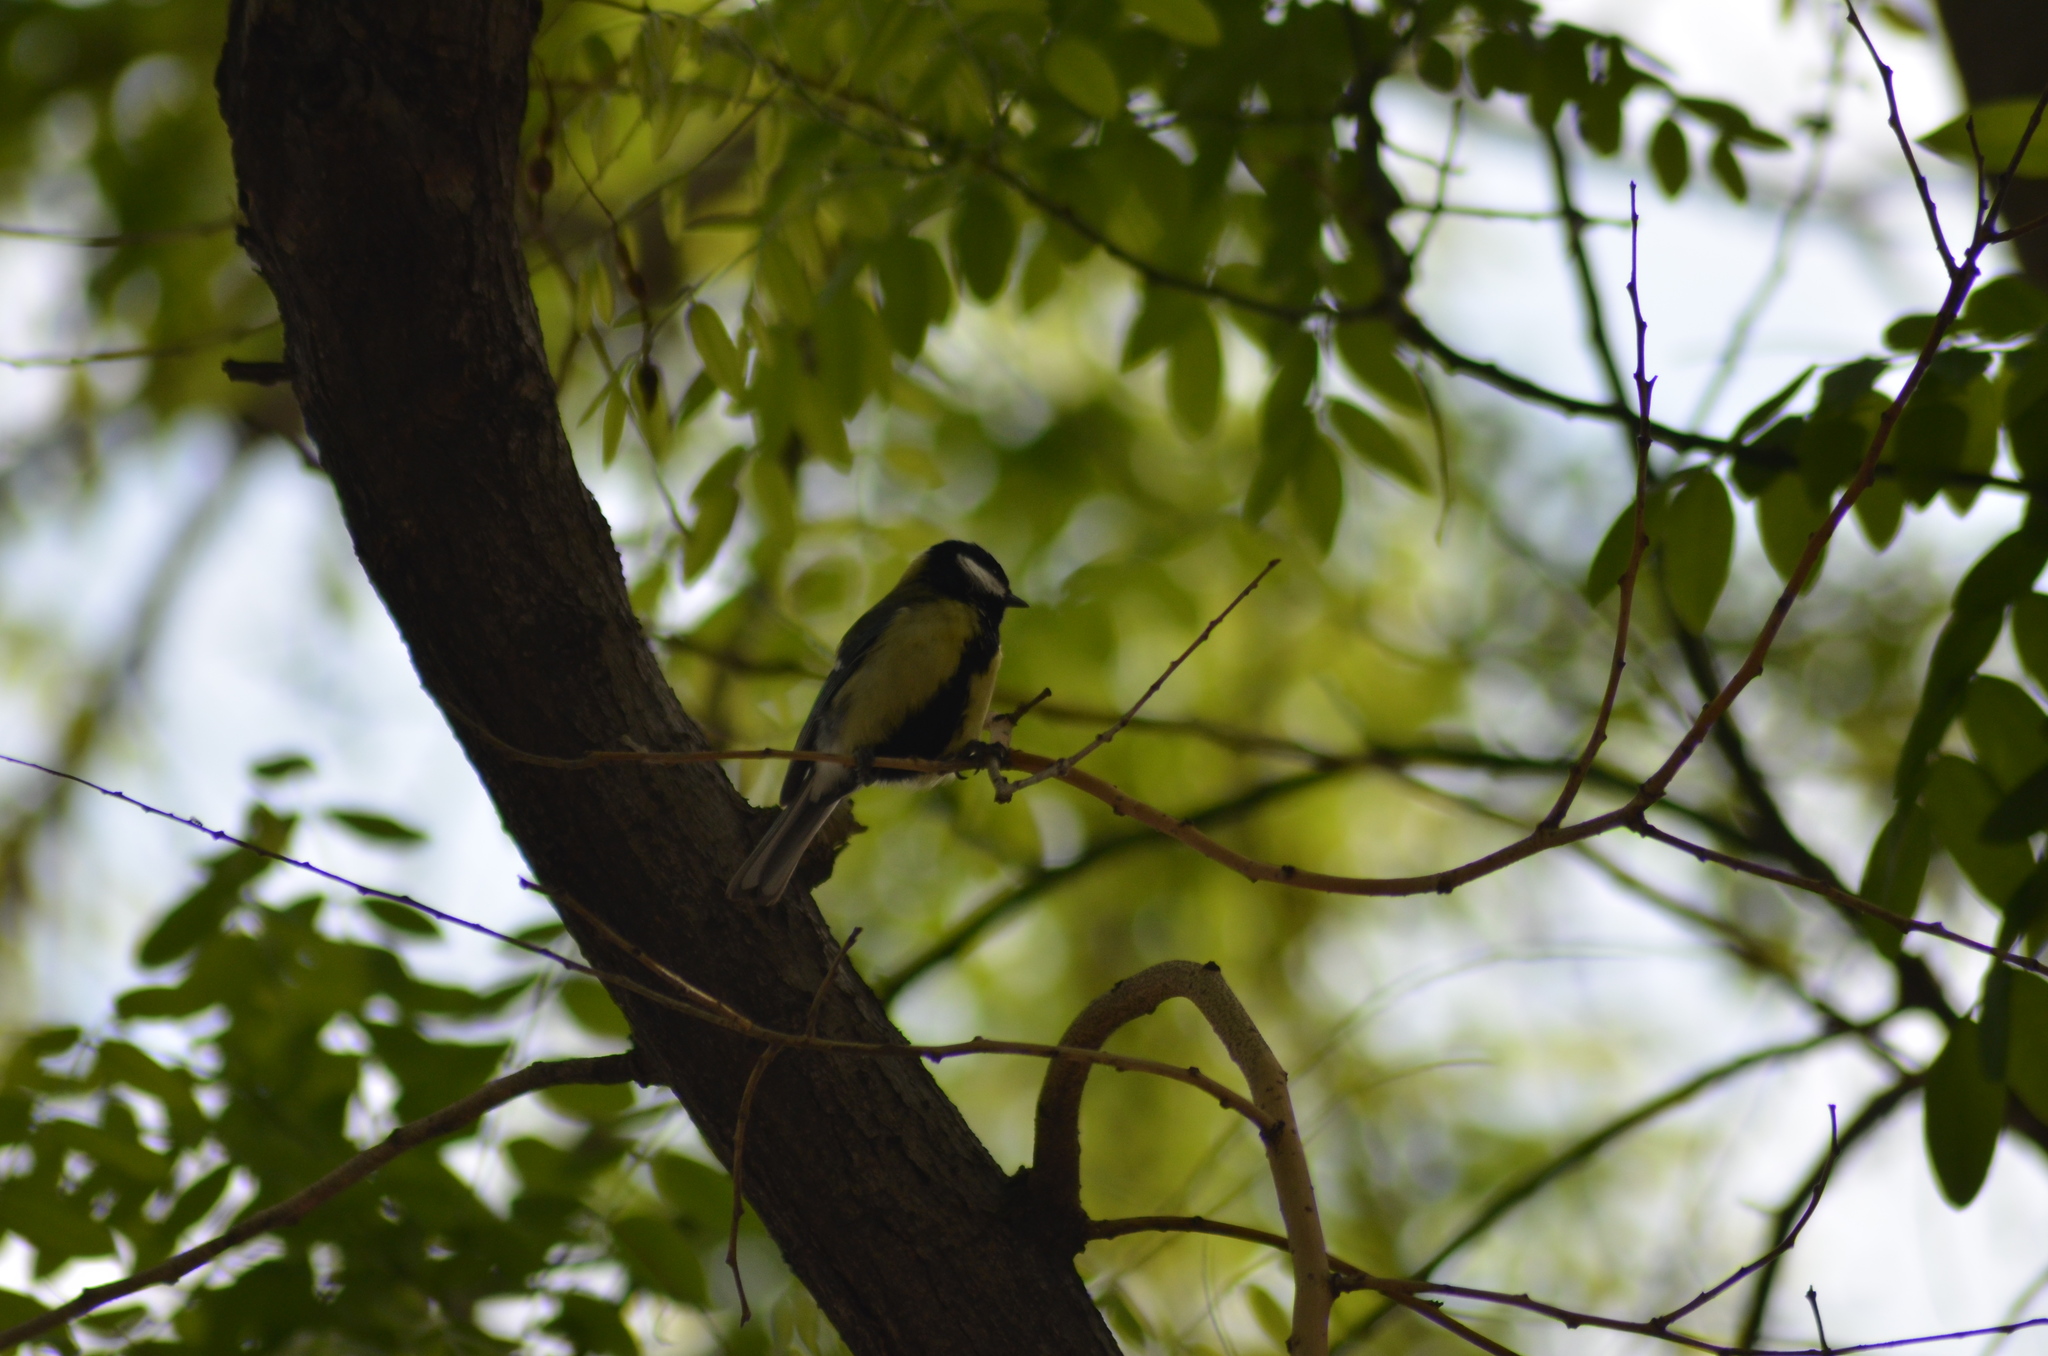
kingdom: Animalia
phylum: Chordata
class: Aves
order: Passeriformes
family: Paridae
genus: Parus
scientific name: Parus major
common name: Great tit
